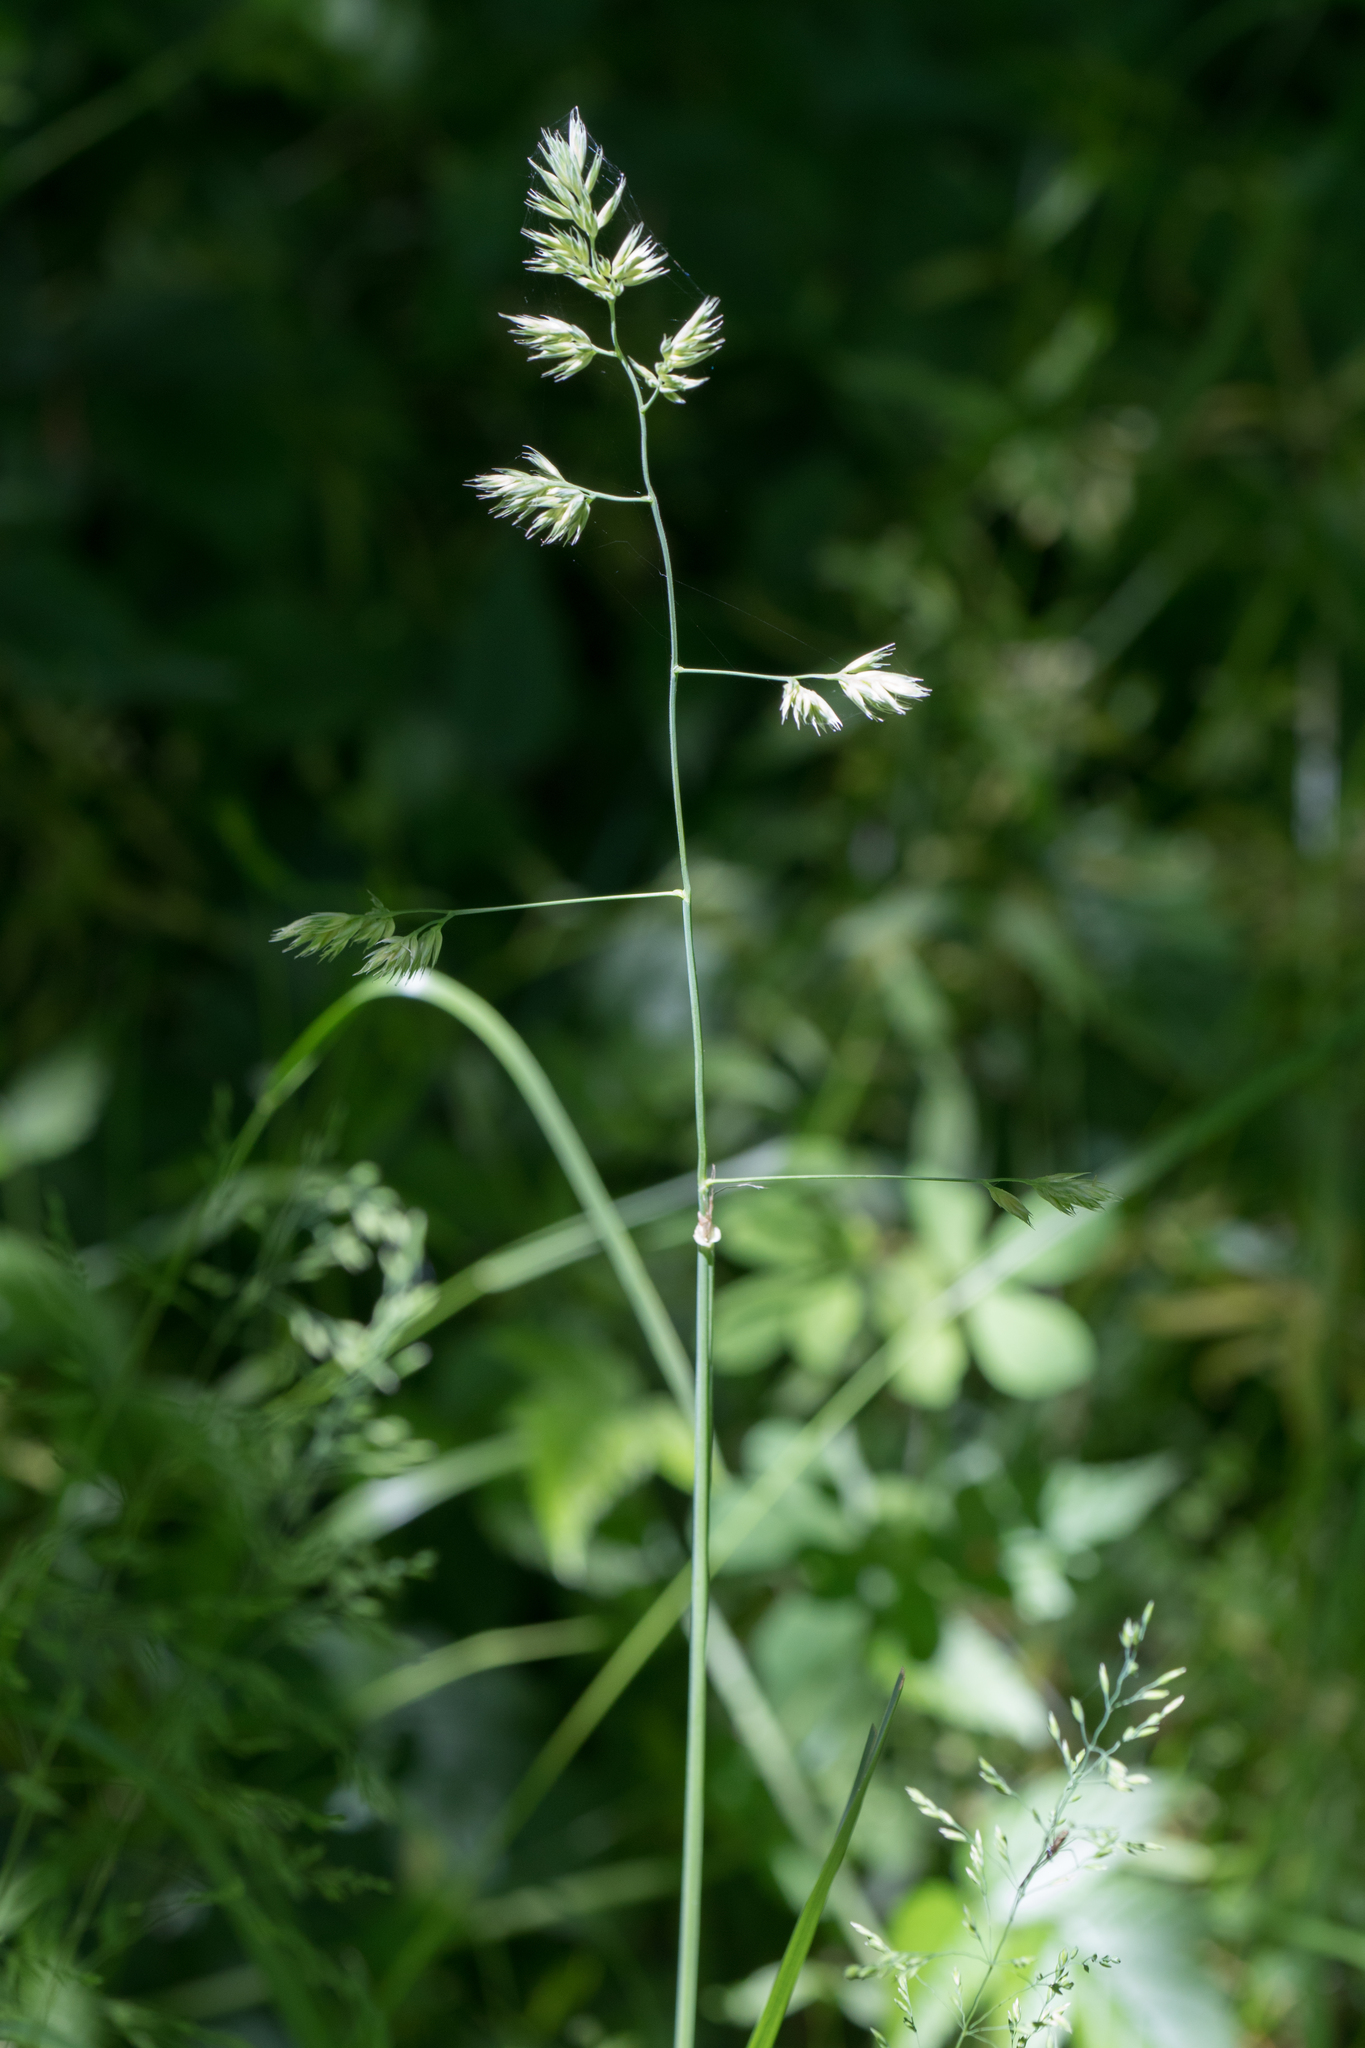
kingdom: Plantae
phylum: Tracheophyta
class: Liliopsida
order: Poales
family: Poaceae
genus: Dactylis
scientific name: Dactylis glomerata
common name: Orchardgrass
